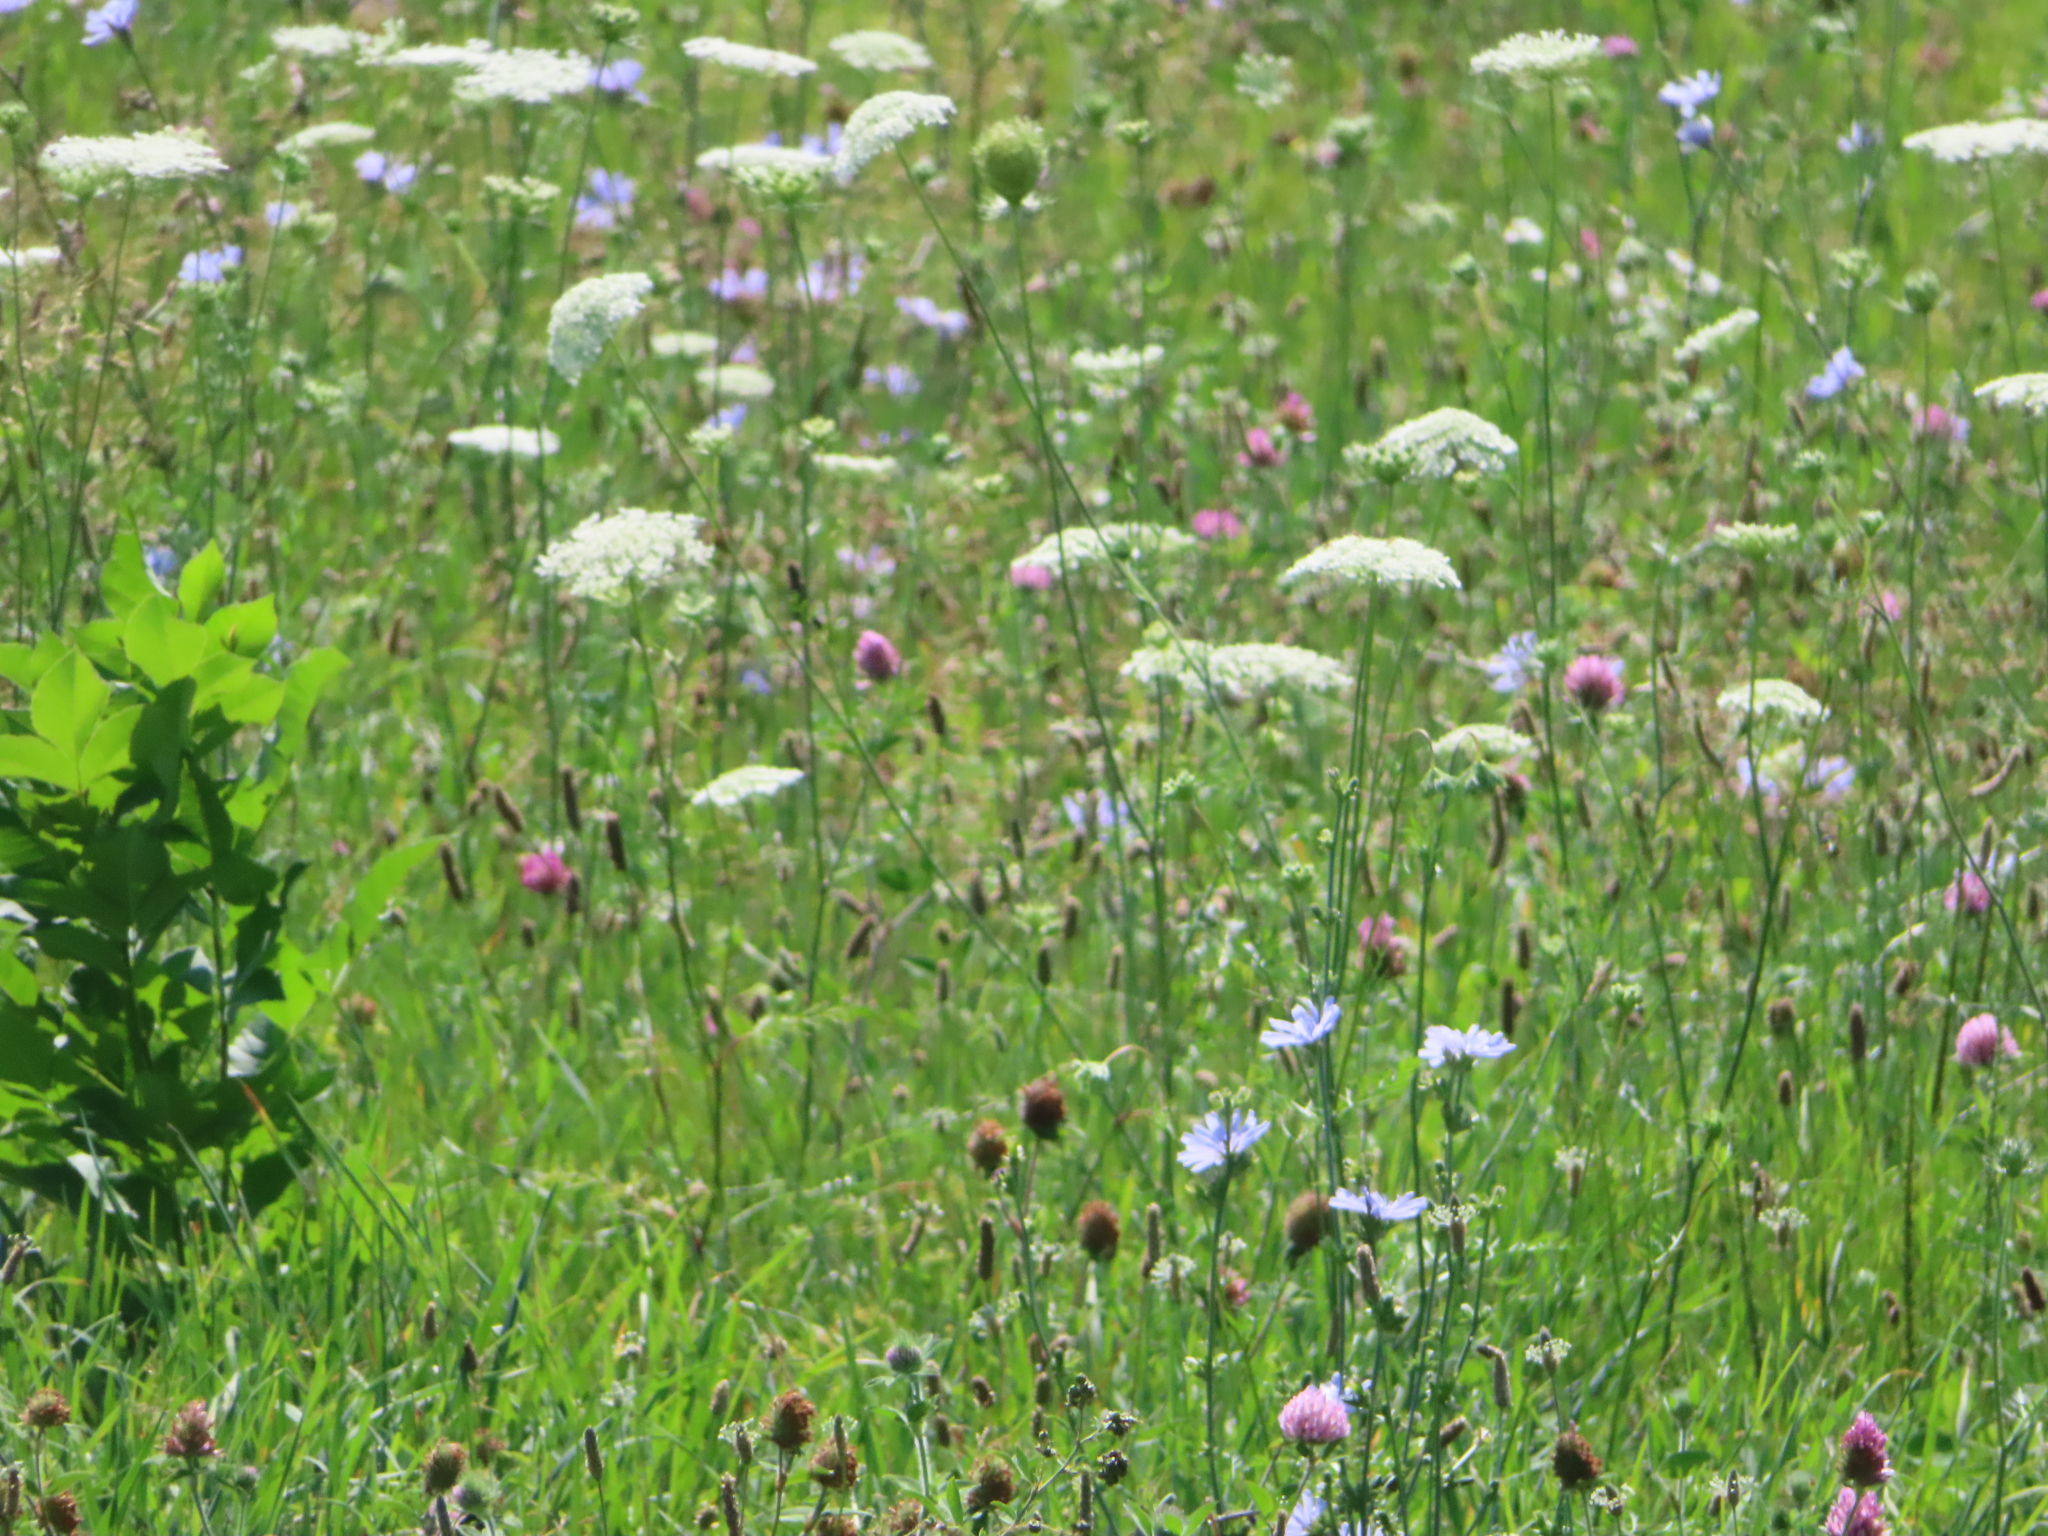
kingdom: Plantae
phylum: Tracheophyta
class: Magnoliopsida
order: Apiales
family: Apiaceae
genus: Daucus
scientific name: Daucus carota
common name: Wild carrot
